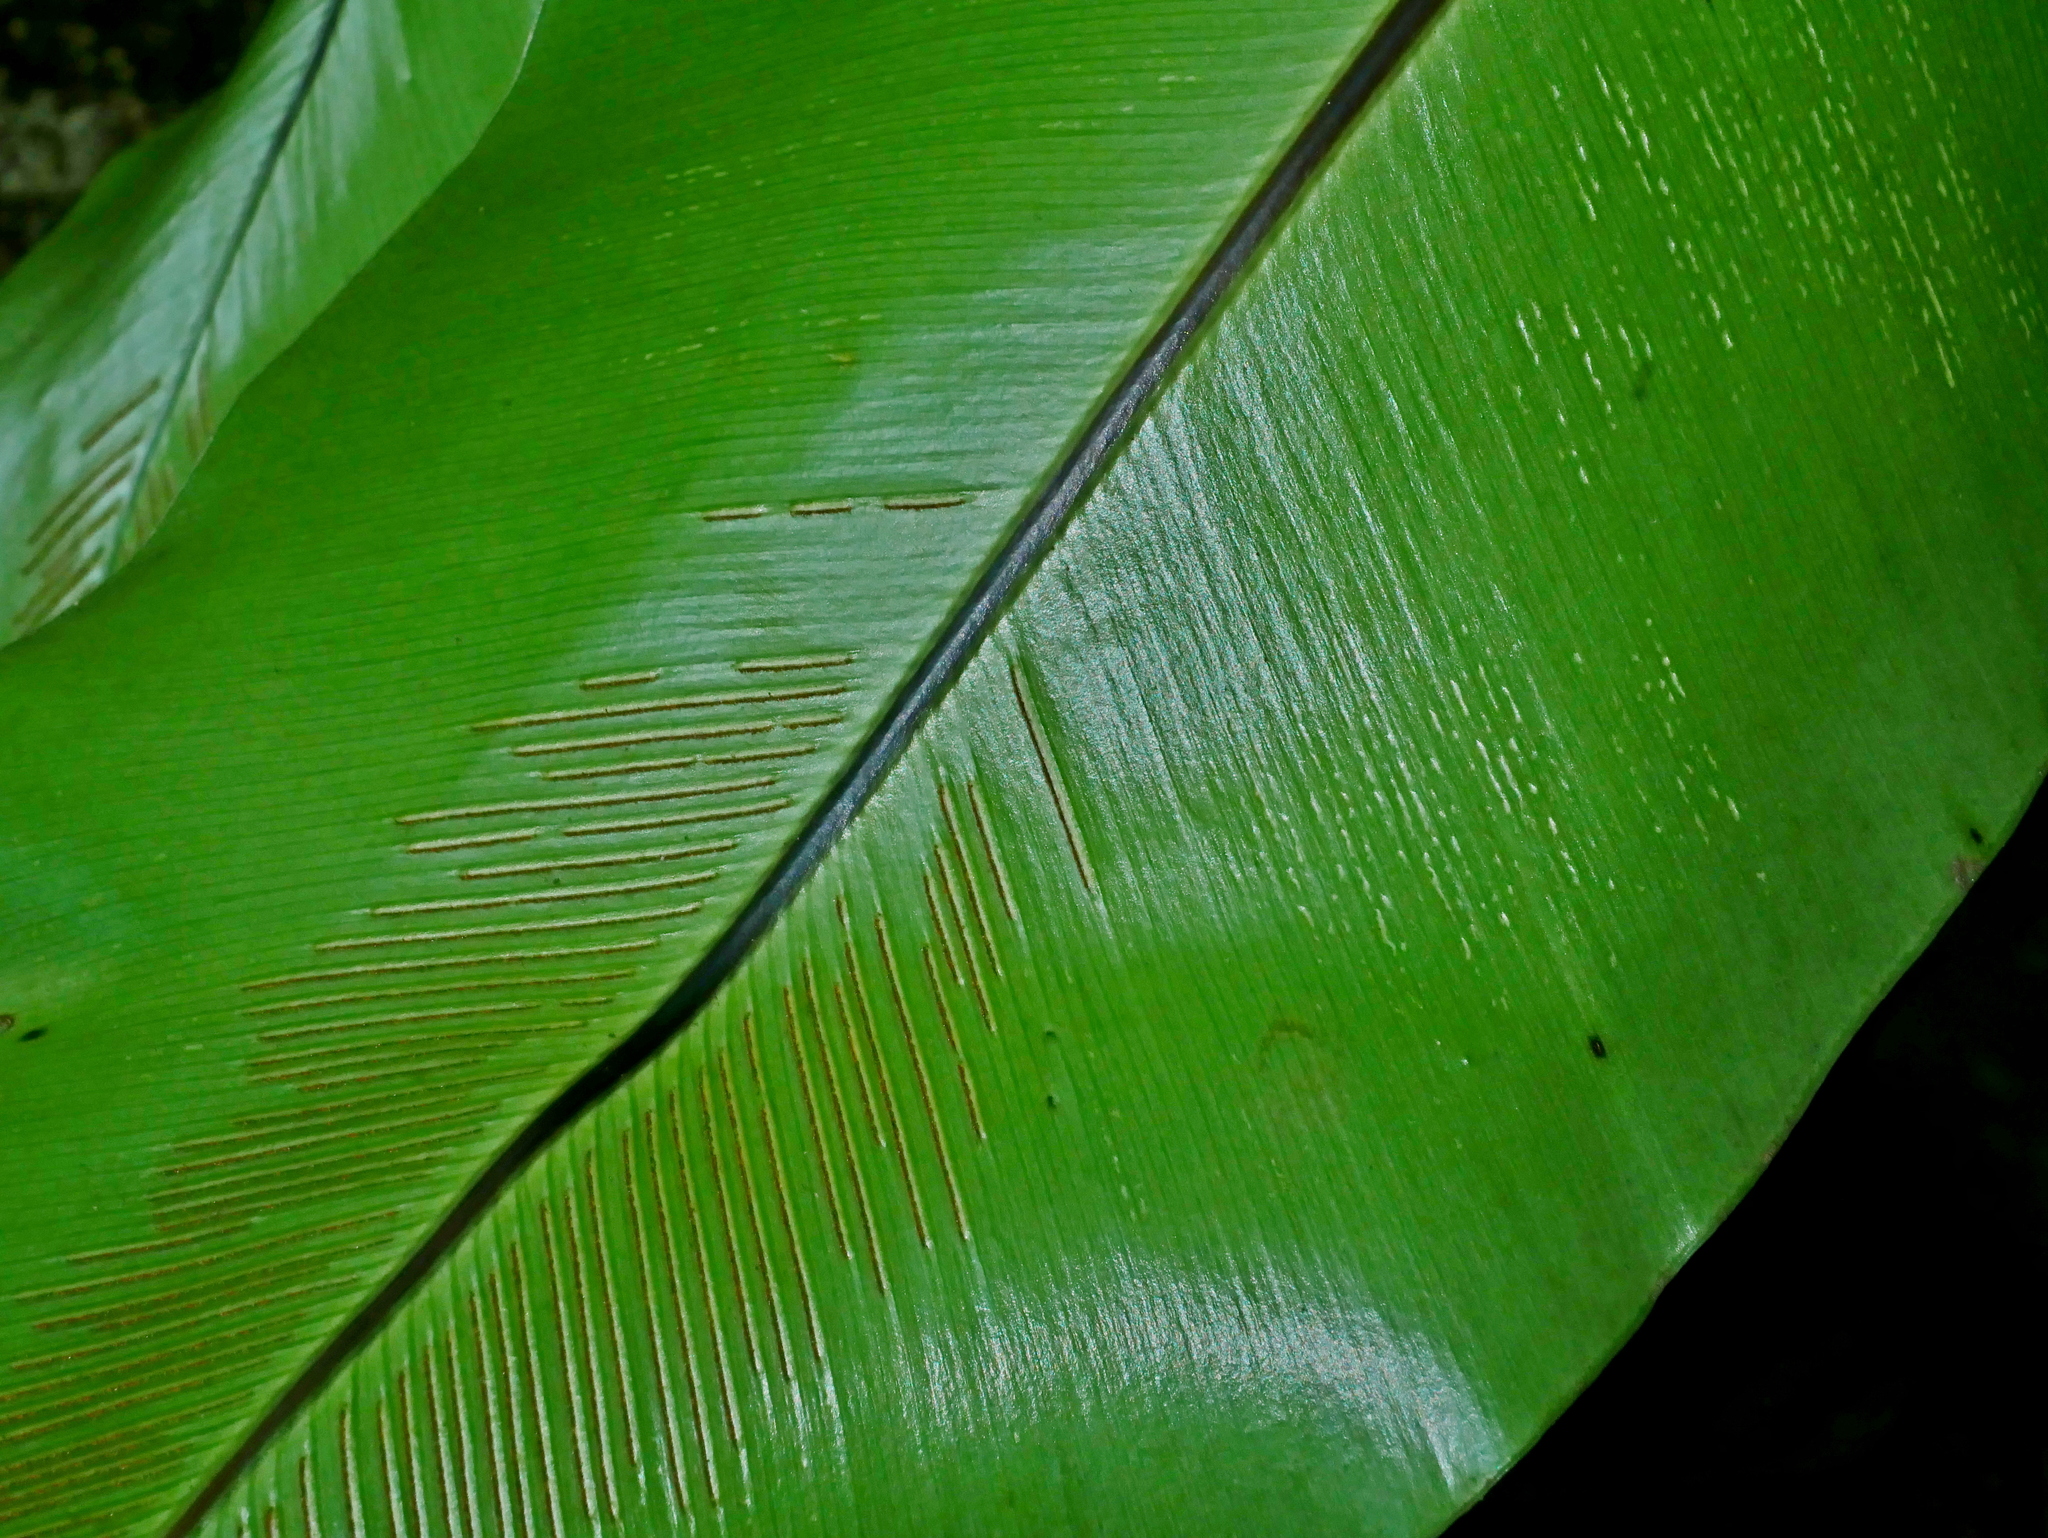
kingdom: Plantae
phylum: Tracheophyta
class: Polypodiopsida
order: Polypodiales
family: Aspleniaceae
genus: Asplenium
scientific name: Asplenium nidus
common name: Bird's-nest fern
